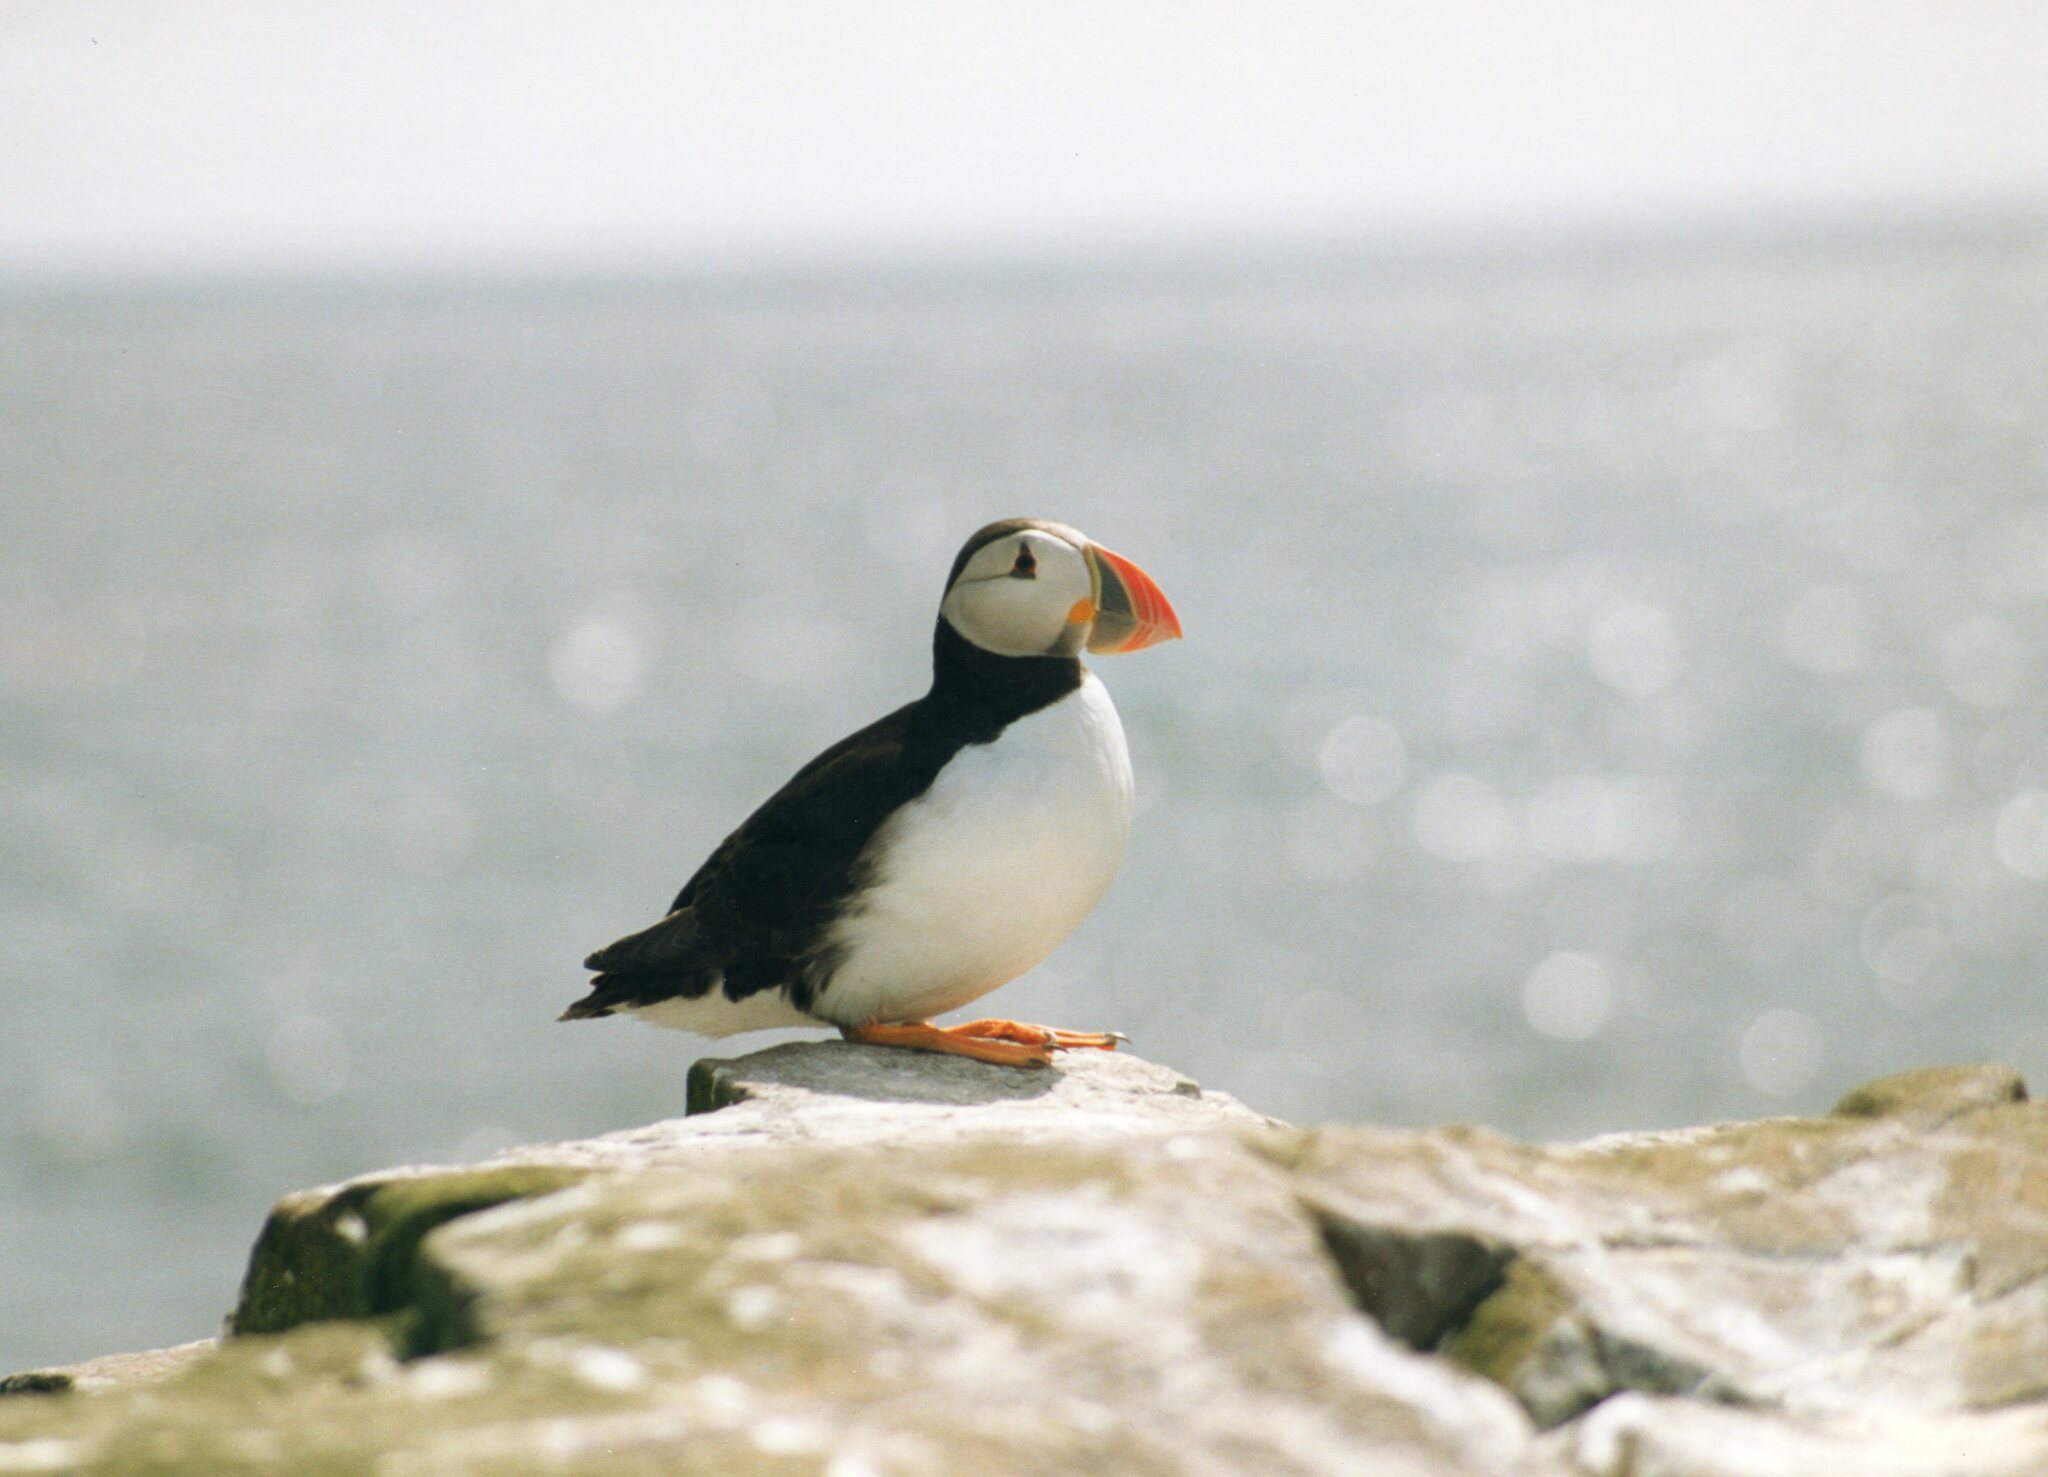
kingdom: Animalia
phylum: Chordata
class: Aves
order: Charadriiformes
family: Alcidae
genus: Fratercula
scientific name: Fratercula arctica
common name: Atlantic puffin
